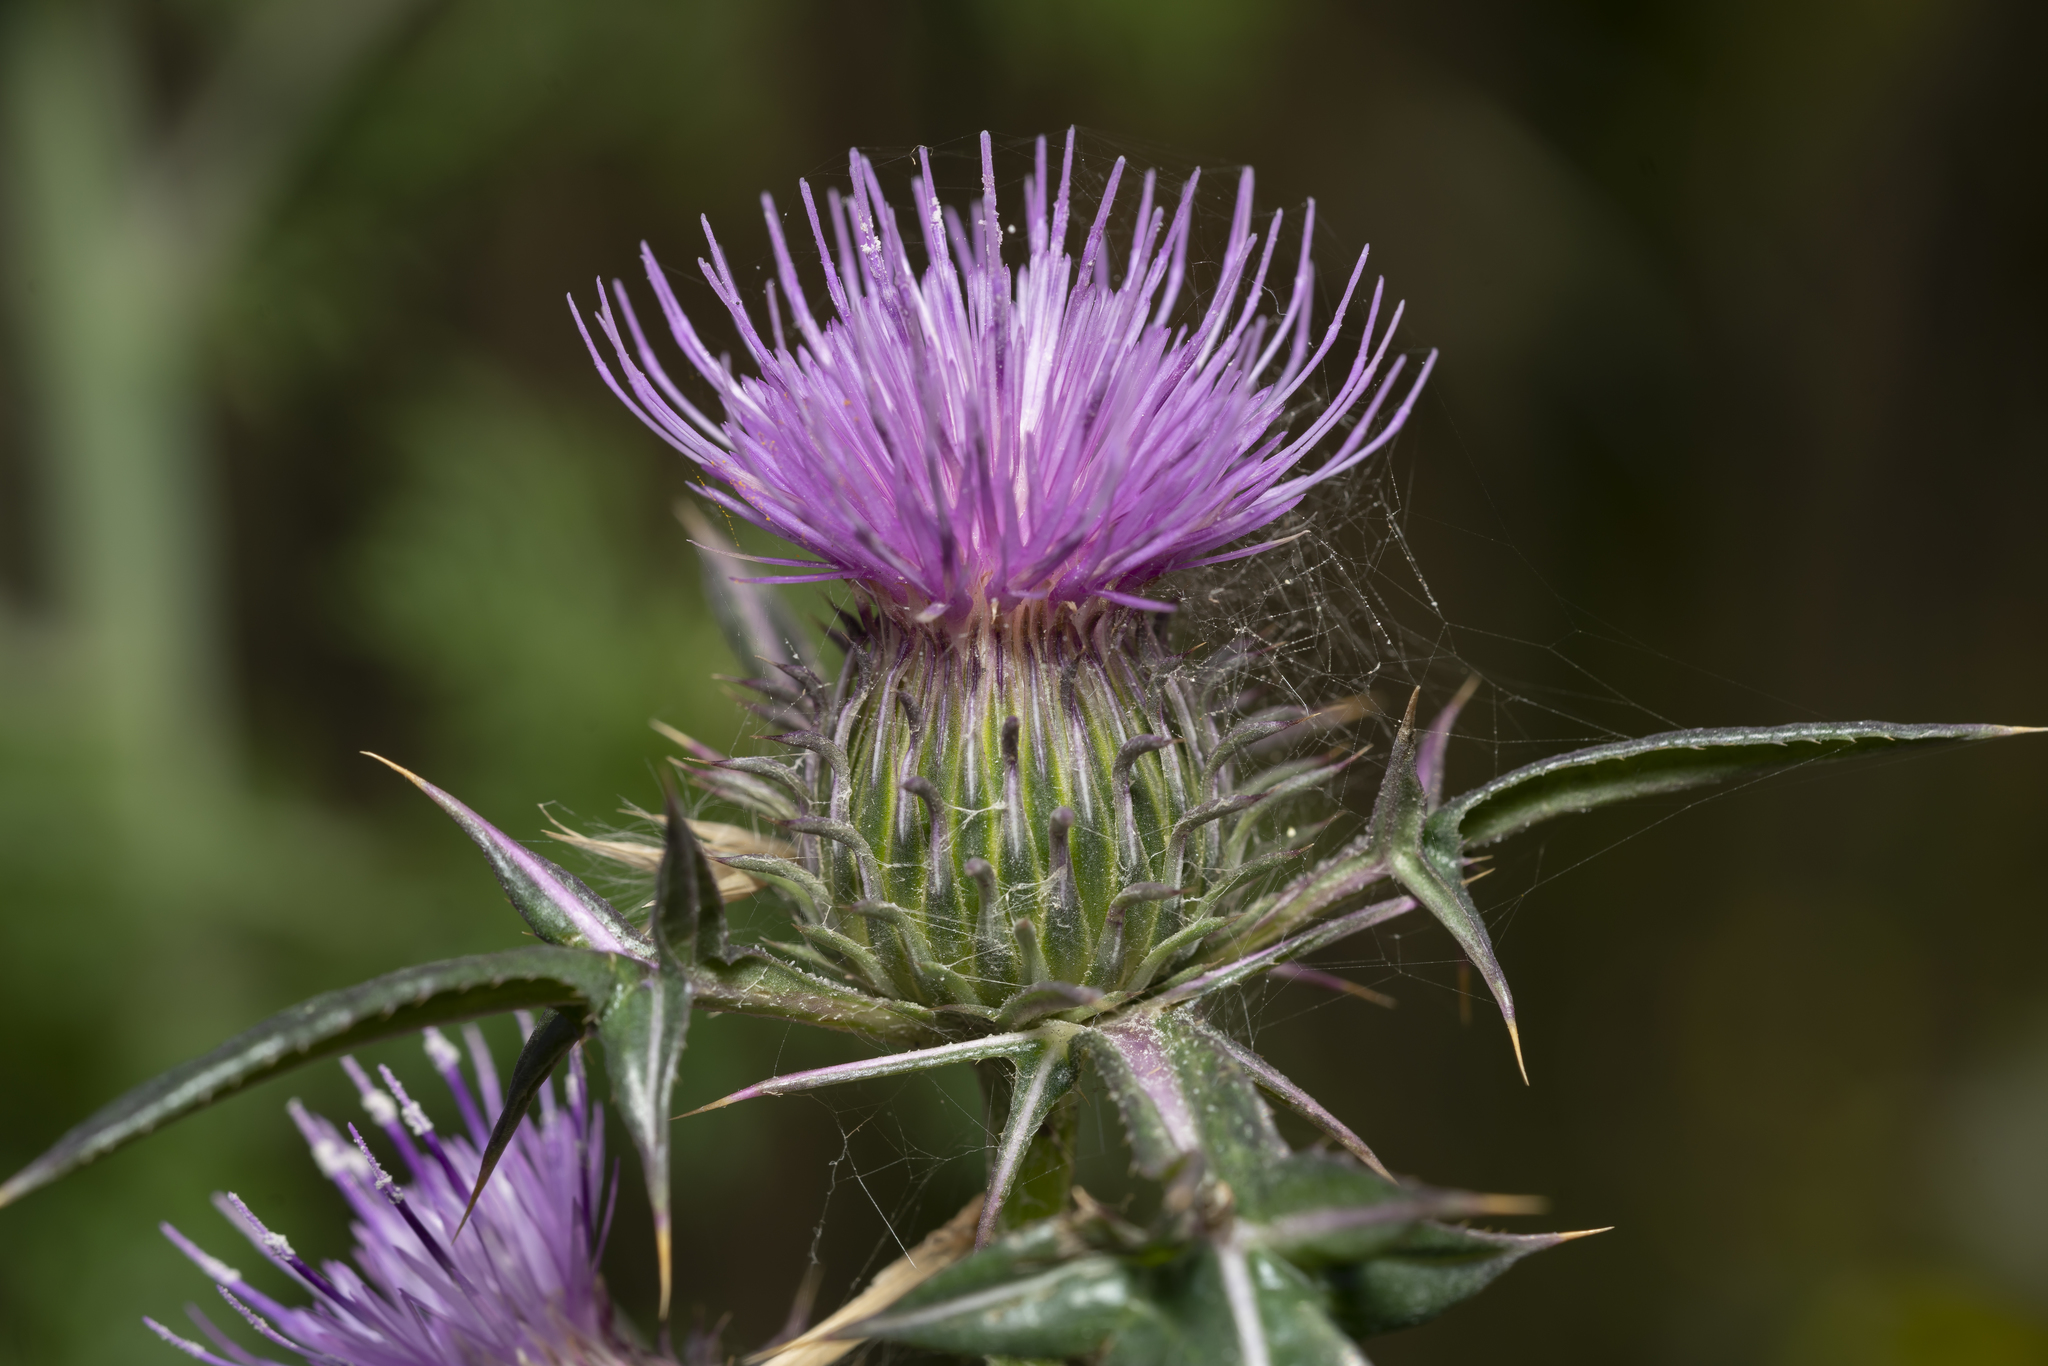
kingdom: Plantae
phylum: Tracheophyta
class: Magnoliopsida
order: Asterales
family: Asteraceae
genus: Notobasis
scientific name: Notobasis syriaca
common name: Syrian thistle
